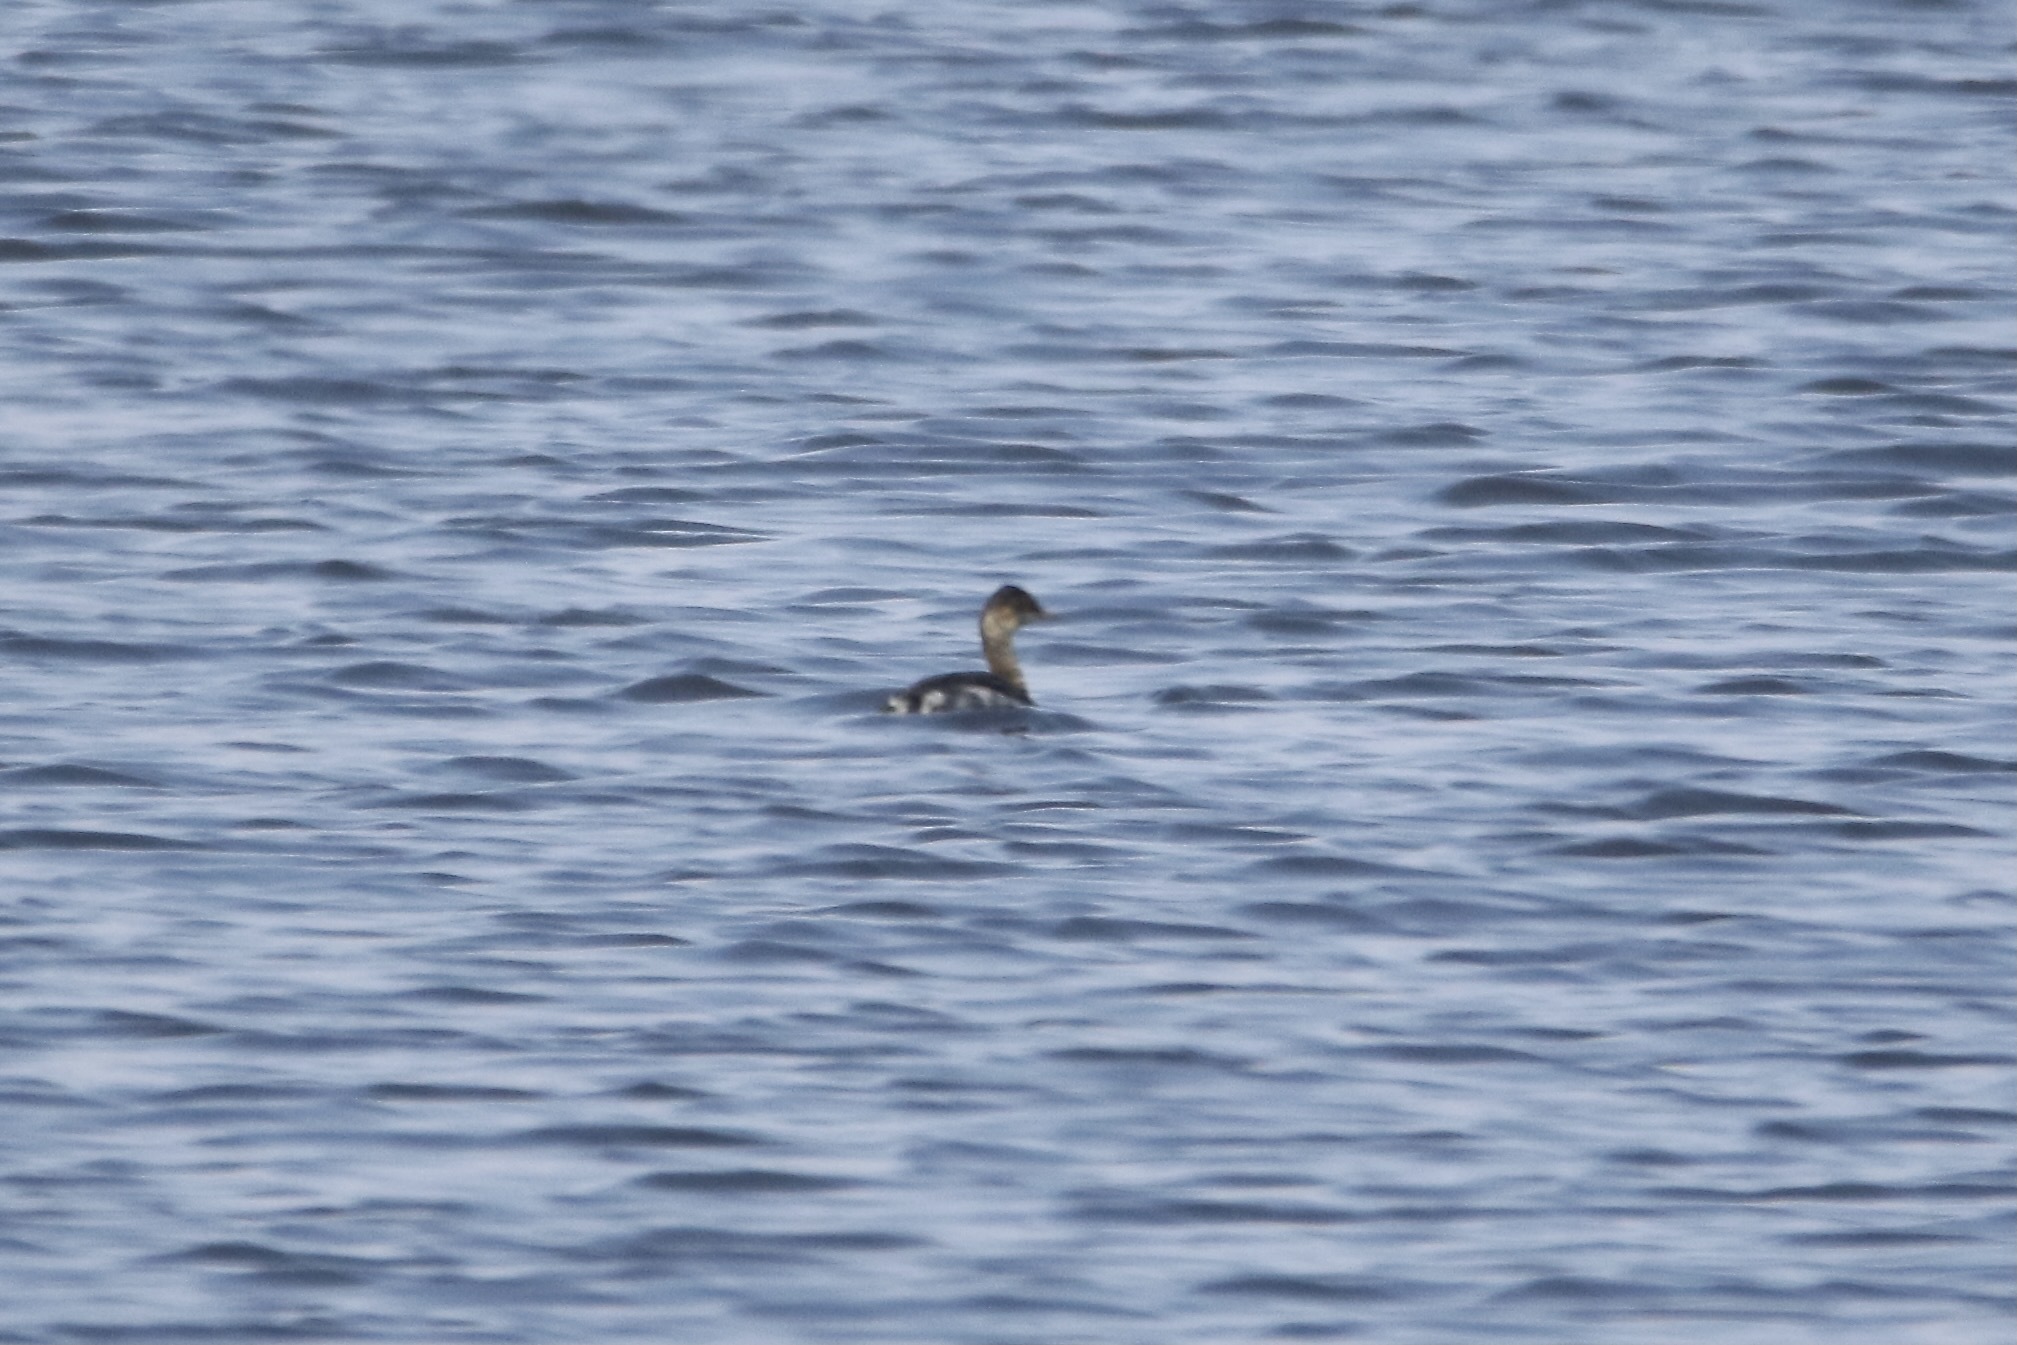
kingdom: Animalia
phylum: Chordata
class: Aves
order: Podicipediformes
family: Podicipedidae
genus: Podiceps
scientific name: Podiceps nigricollis
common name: Black-necked grebe
